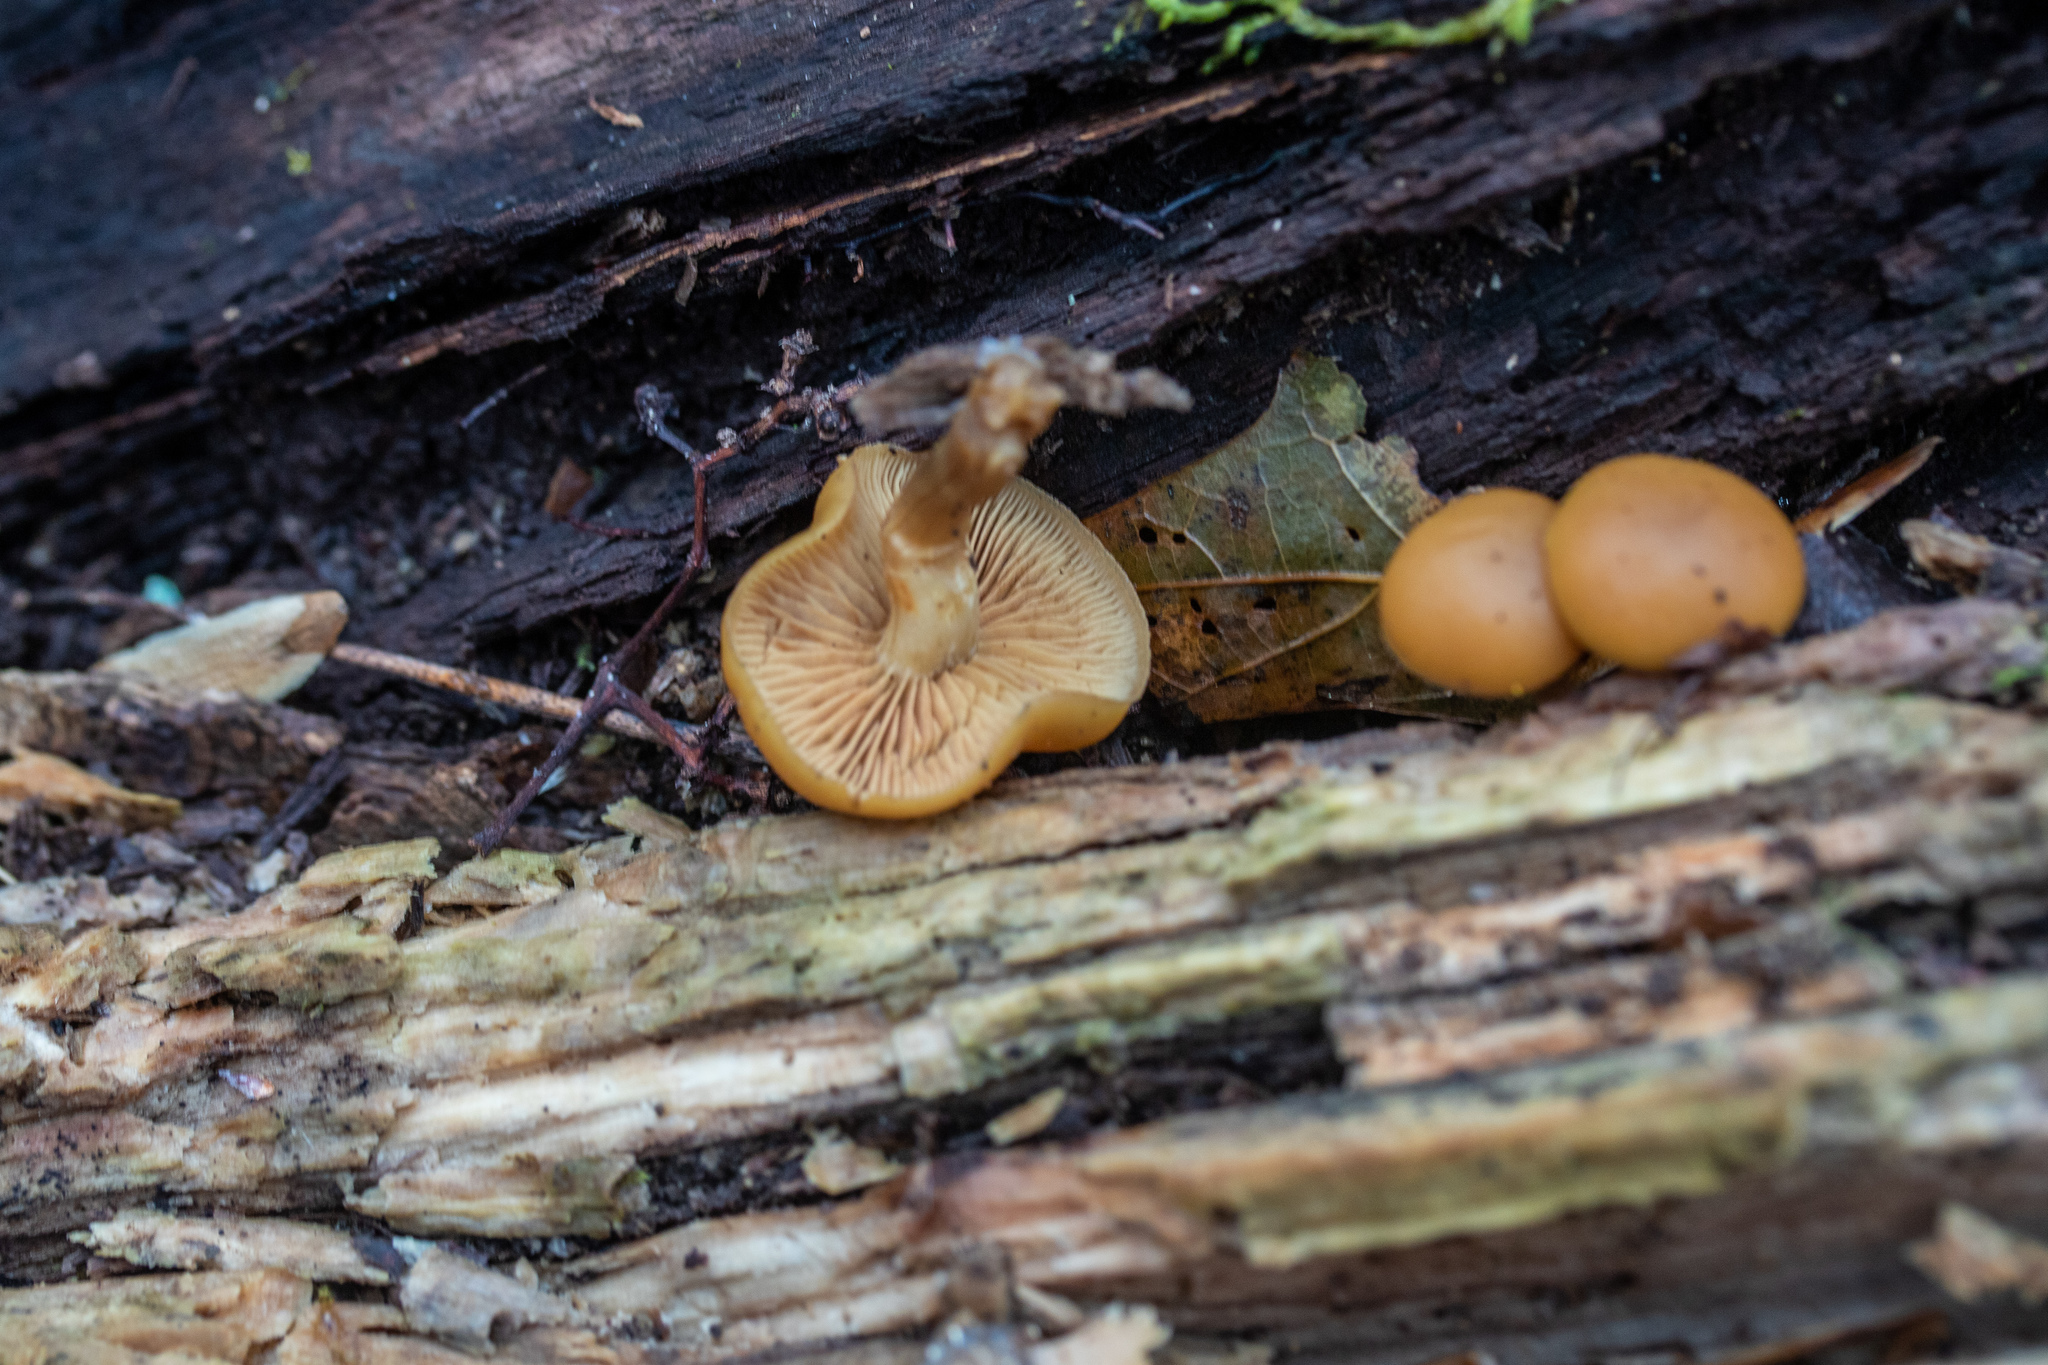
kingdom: Fungi
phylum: Basidiomycota
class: Agaricomycetes
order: Agaricales
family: Hymenogastraceae
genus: Galerina
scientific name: Galerina marginata
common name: Funeral bell
